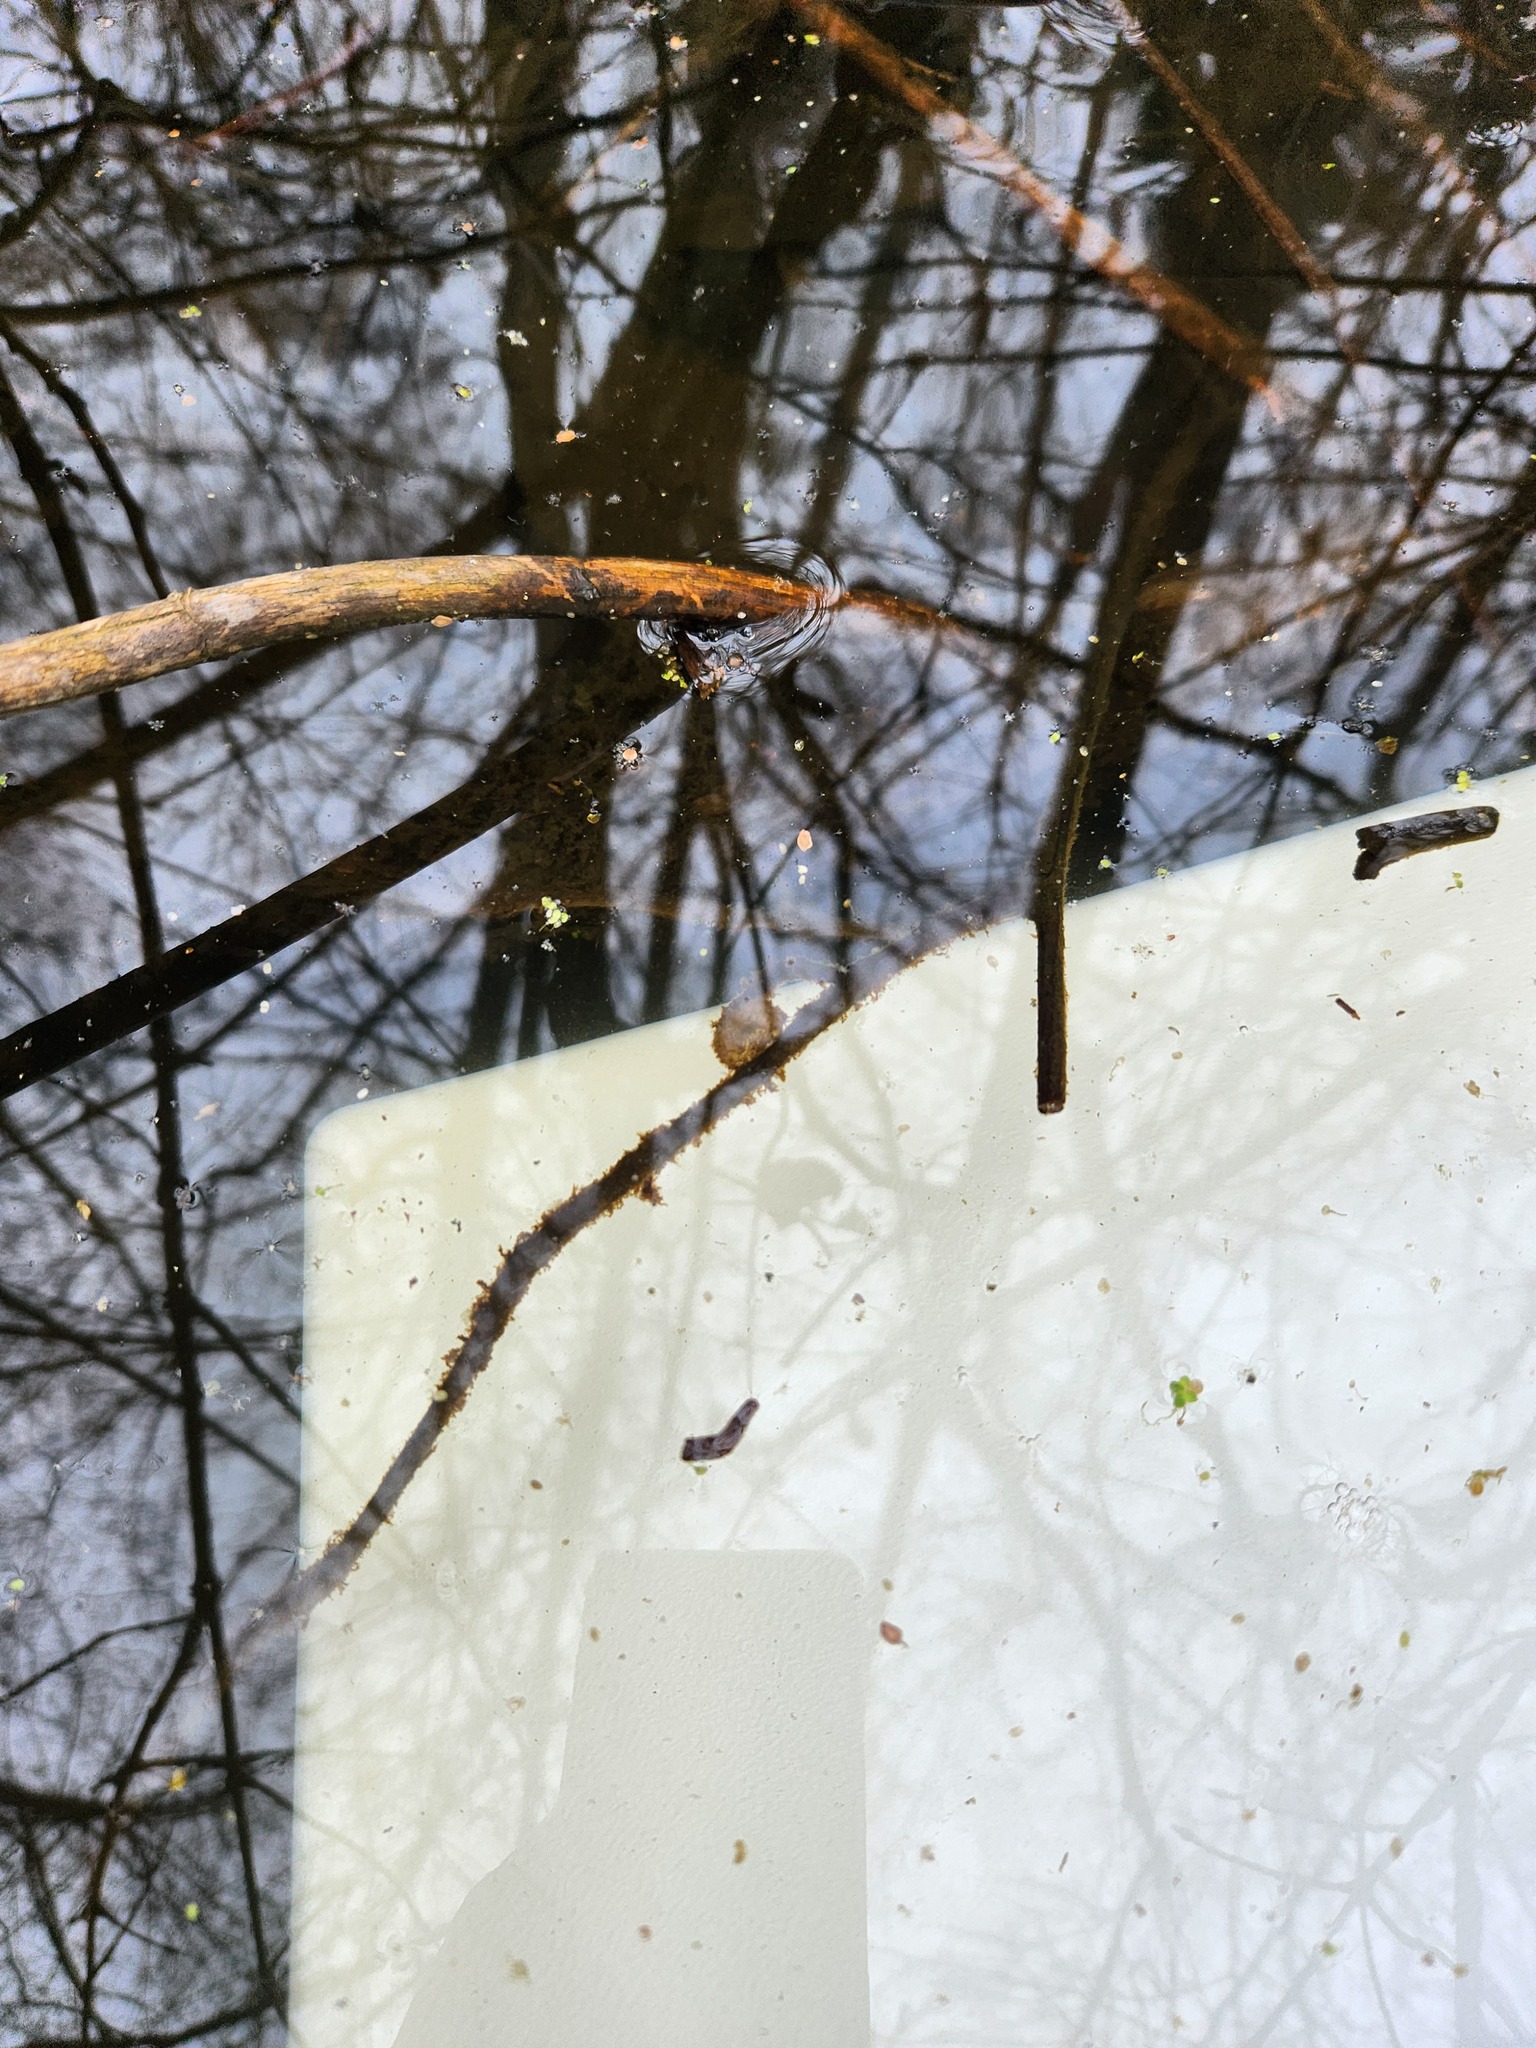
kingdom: Animalia
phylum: Chordata
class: Amphibia
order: Caudata
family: Ambystomatidae
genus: Ambystoma
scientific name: Ambystoma macrodactylum
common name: Long-toed salamander
